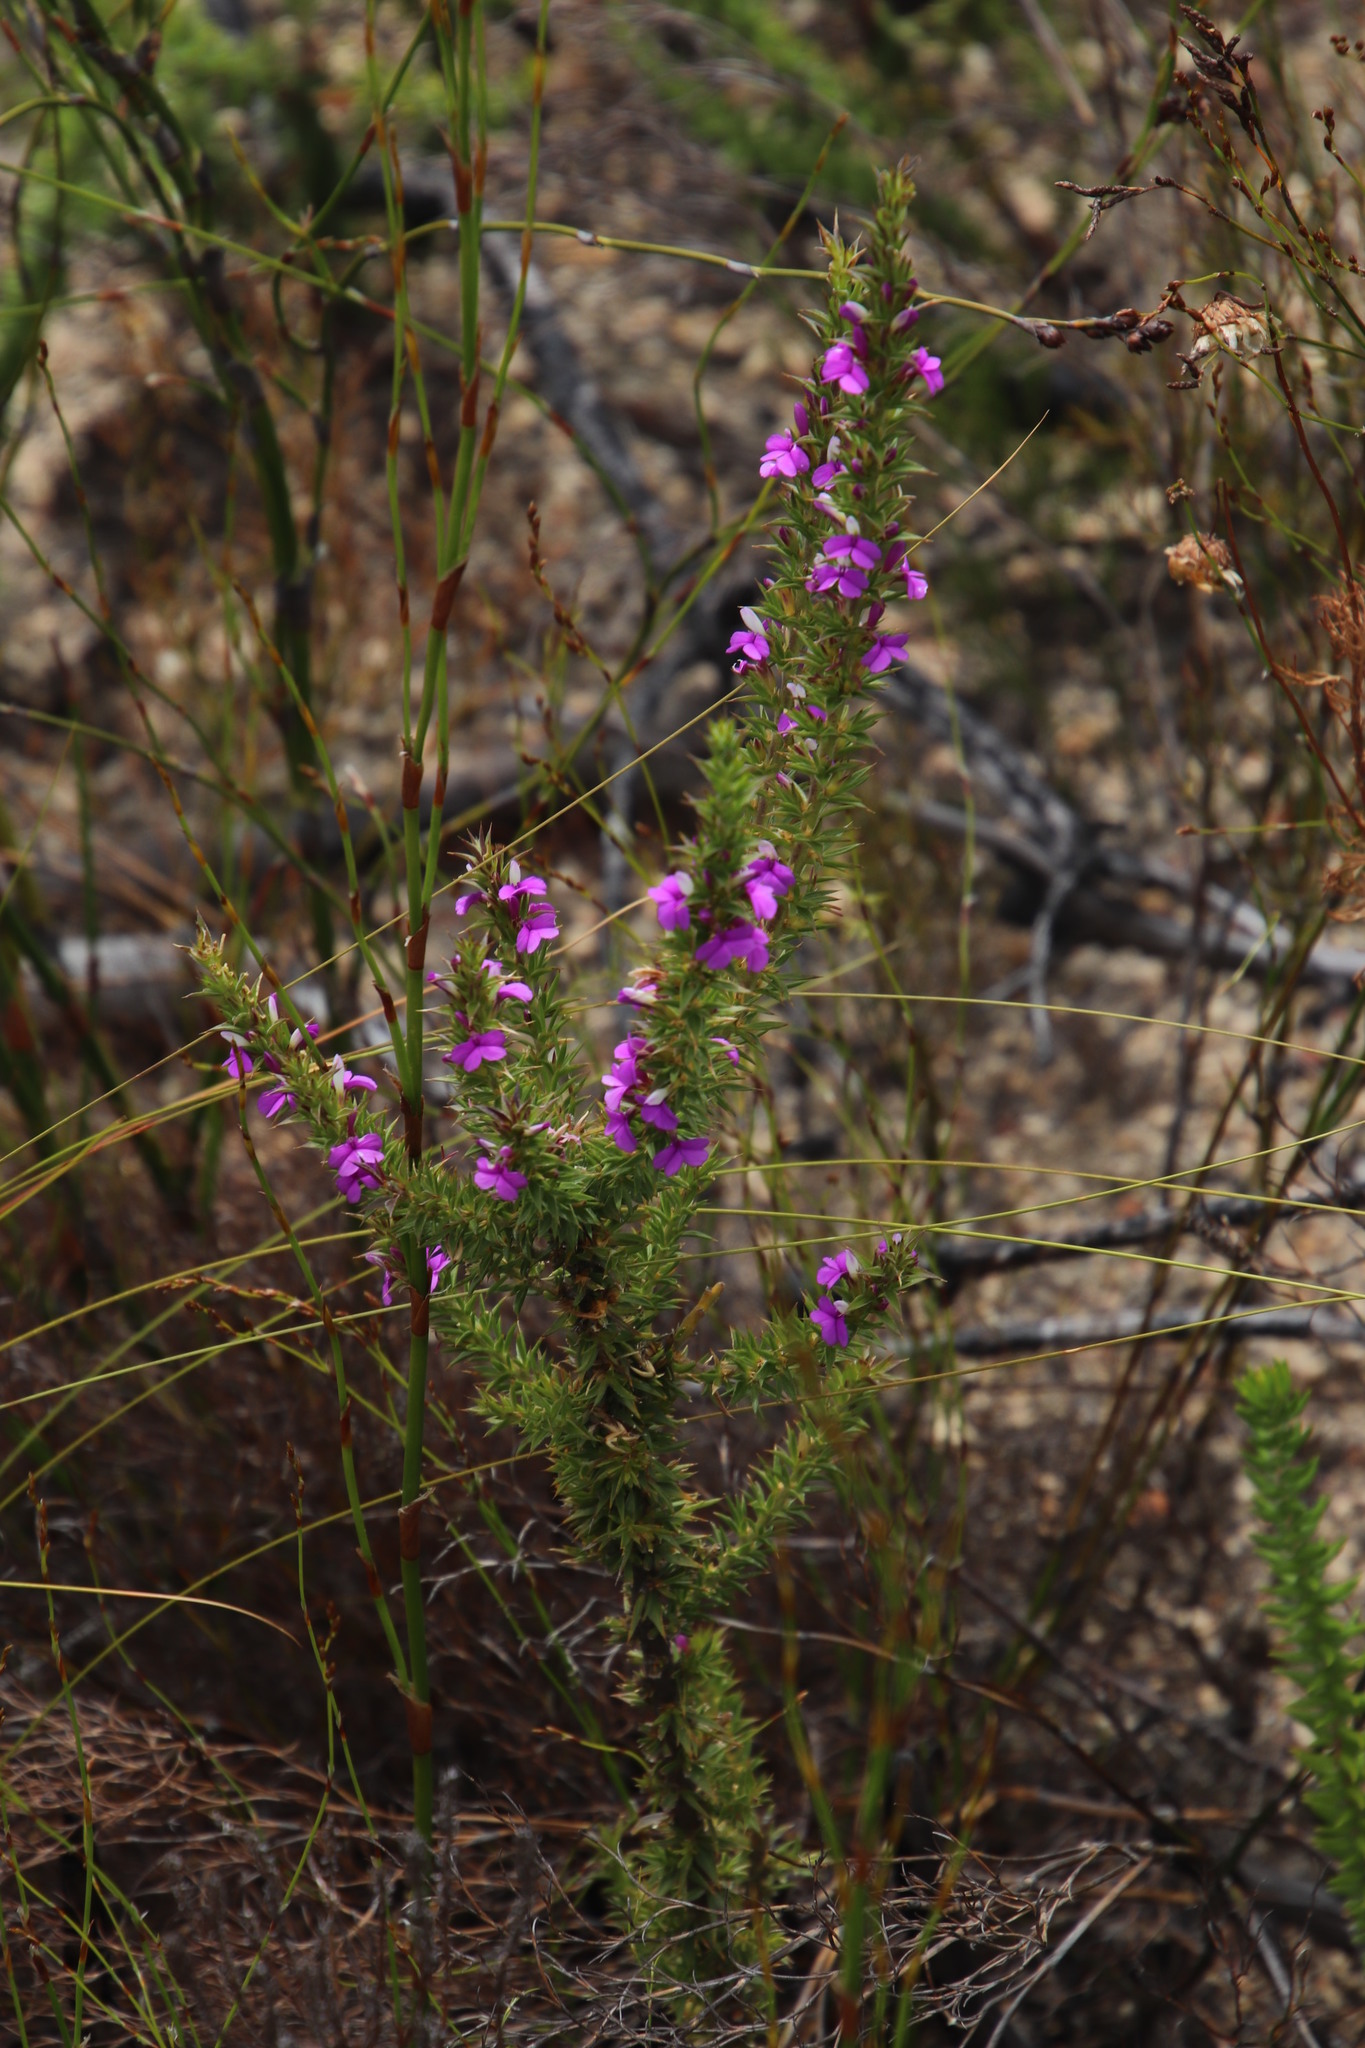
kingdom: Plantae
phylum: Tracheophyta
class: Magnoliopsida
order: Fabales
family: Polygalaceae
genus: Muraltia
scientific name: Muraltia heisteria
